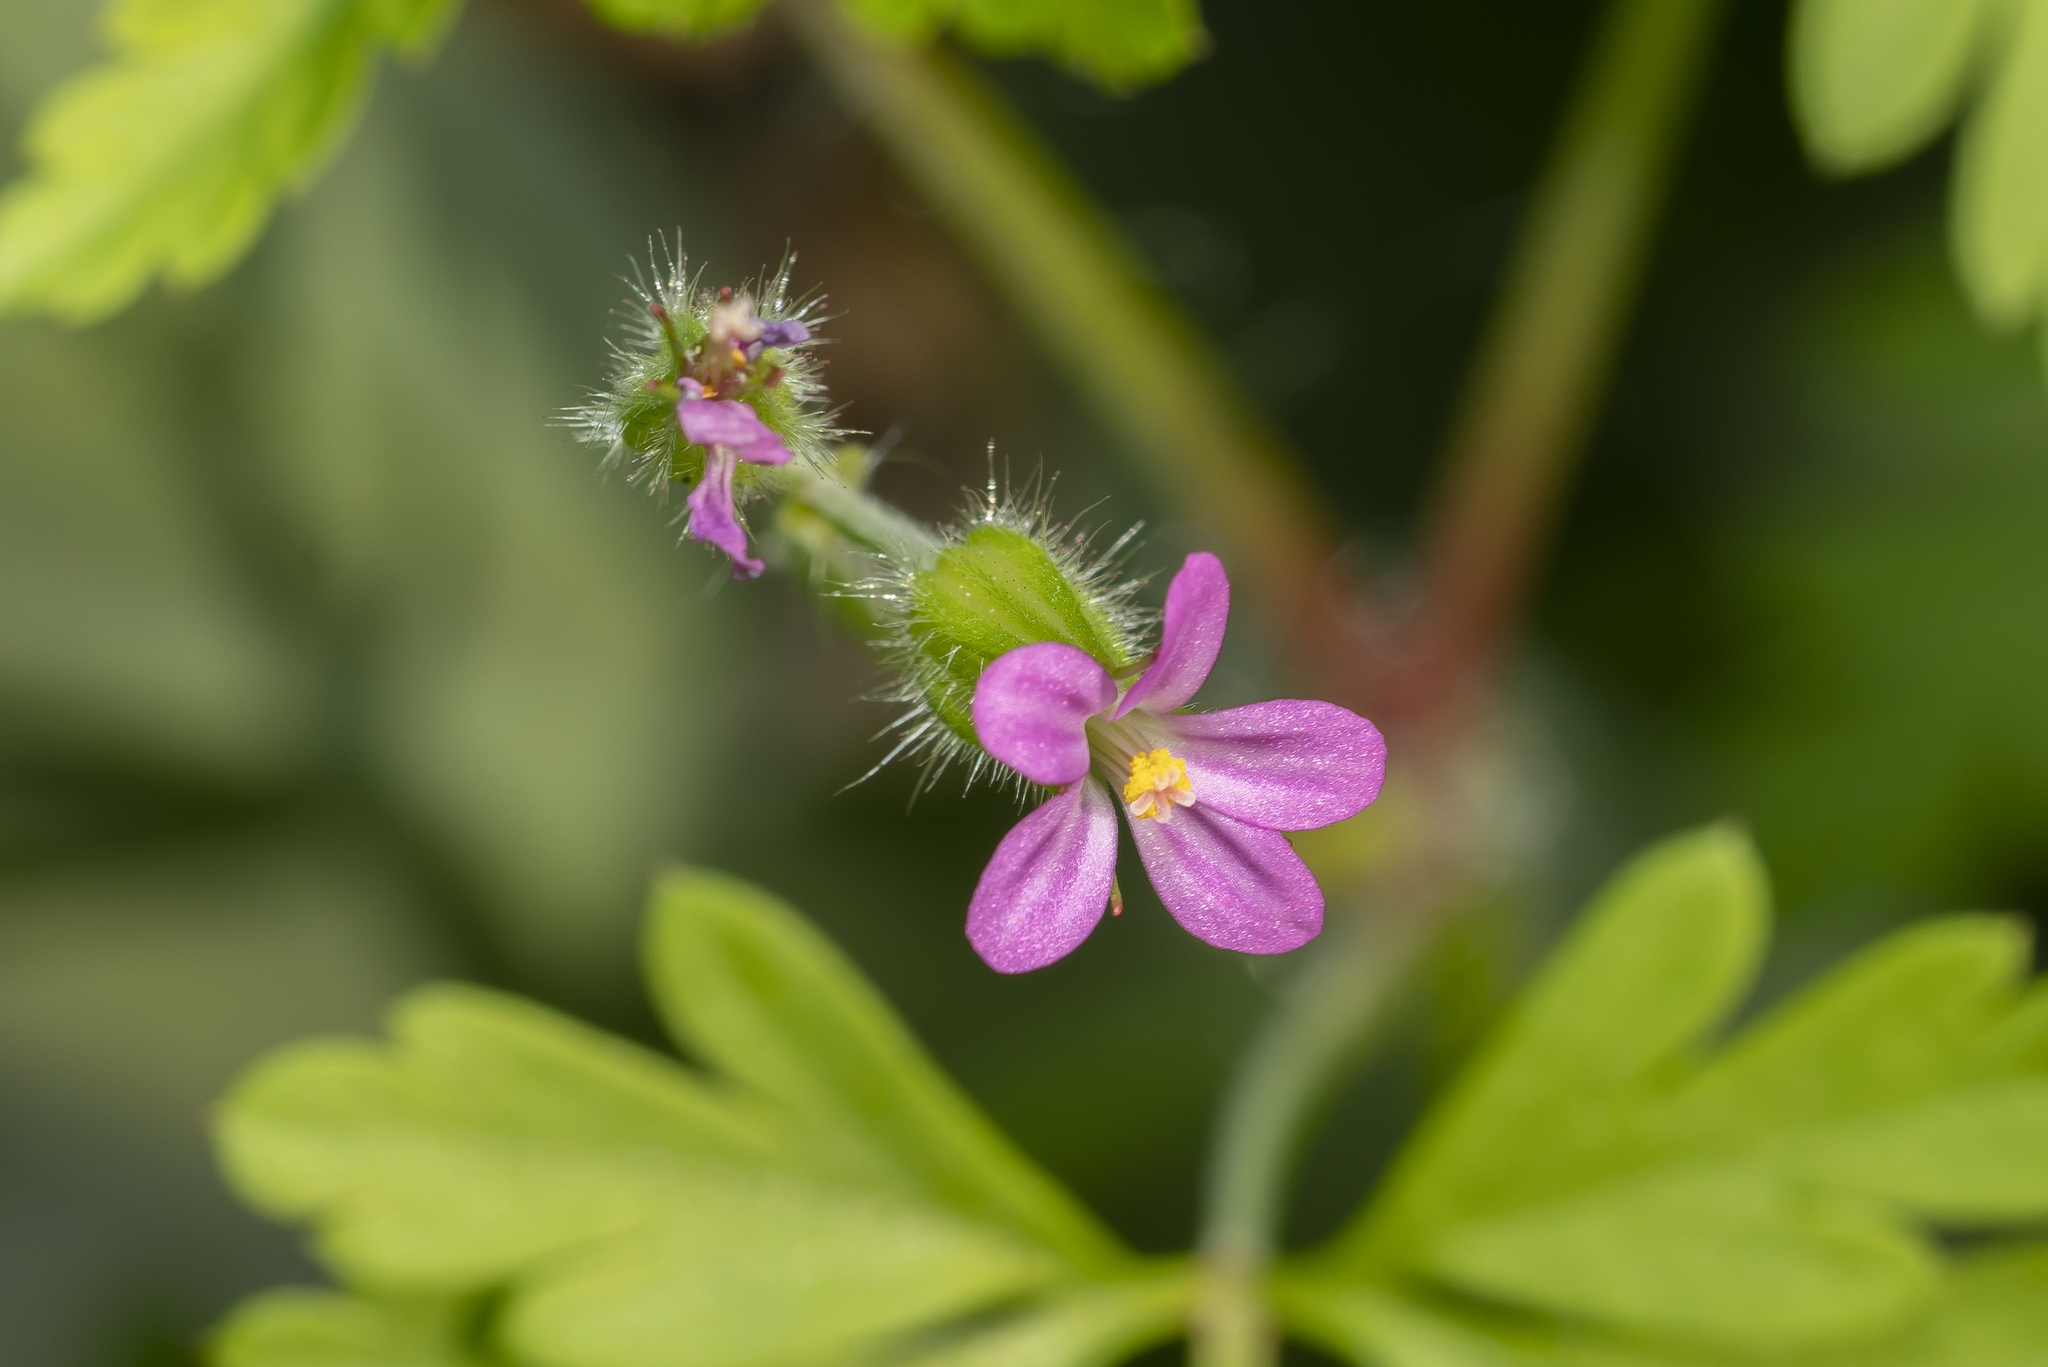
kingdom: Plantae
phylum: Tracheophyta
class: Magnoliopsida
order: Geraniales
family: Geraniaceae
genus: Geranium
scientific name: Geranium purpureum
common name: Little-robin
